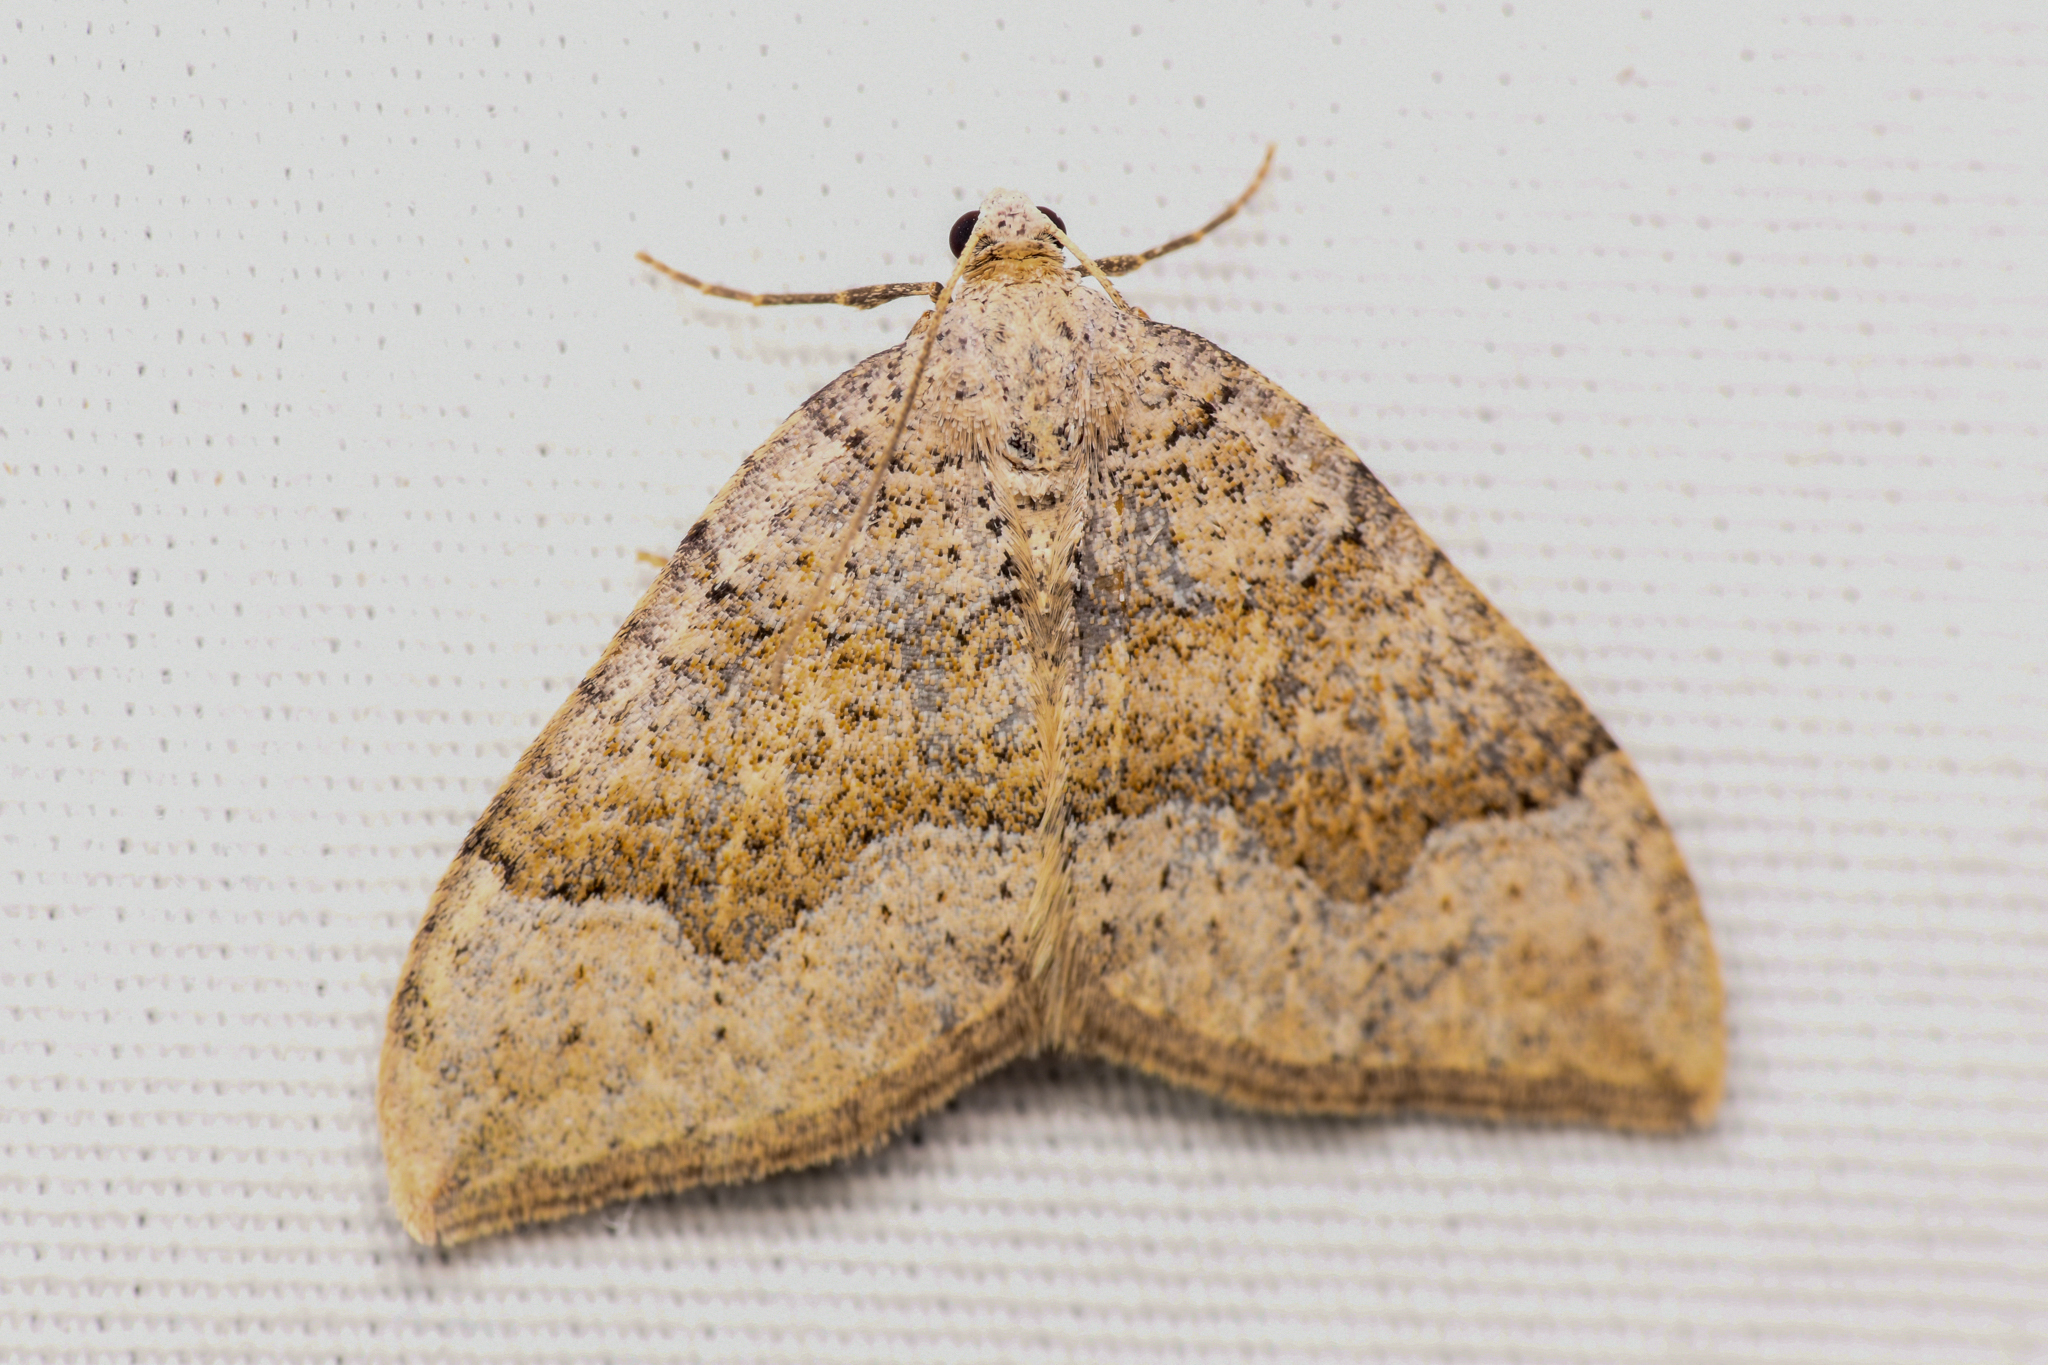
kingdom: Animalia
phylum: Arthropoda
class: Insecta
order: Lepidoptera
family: Geometridae
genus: Zenophleps
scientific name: Zenophleps lignicolorata
